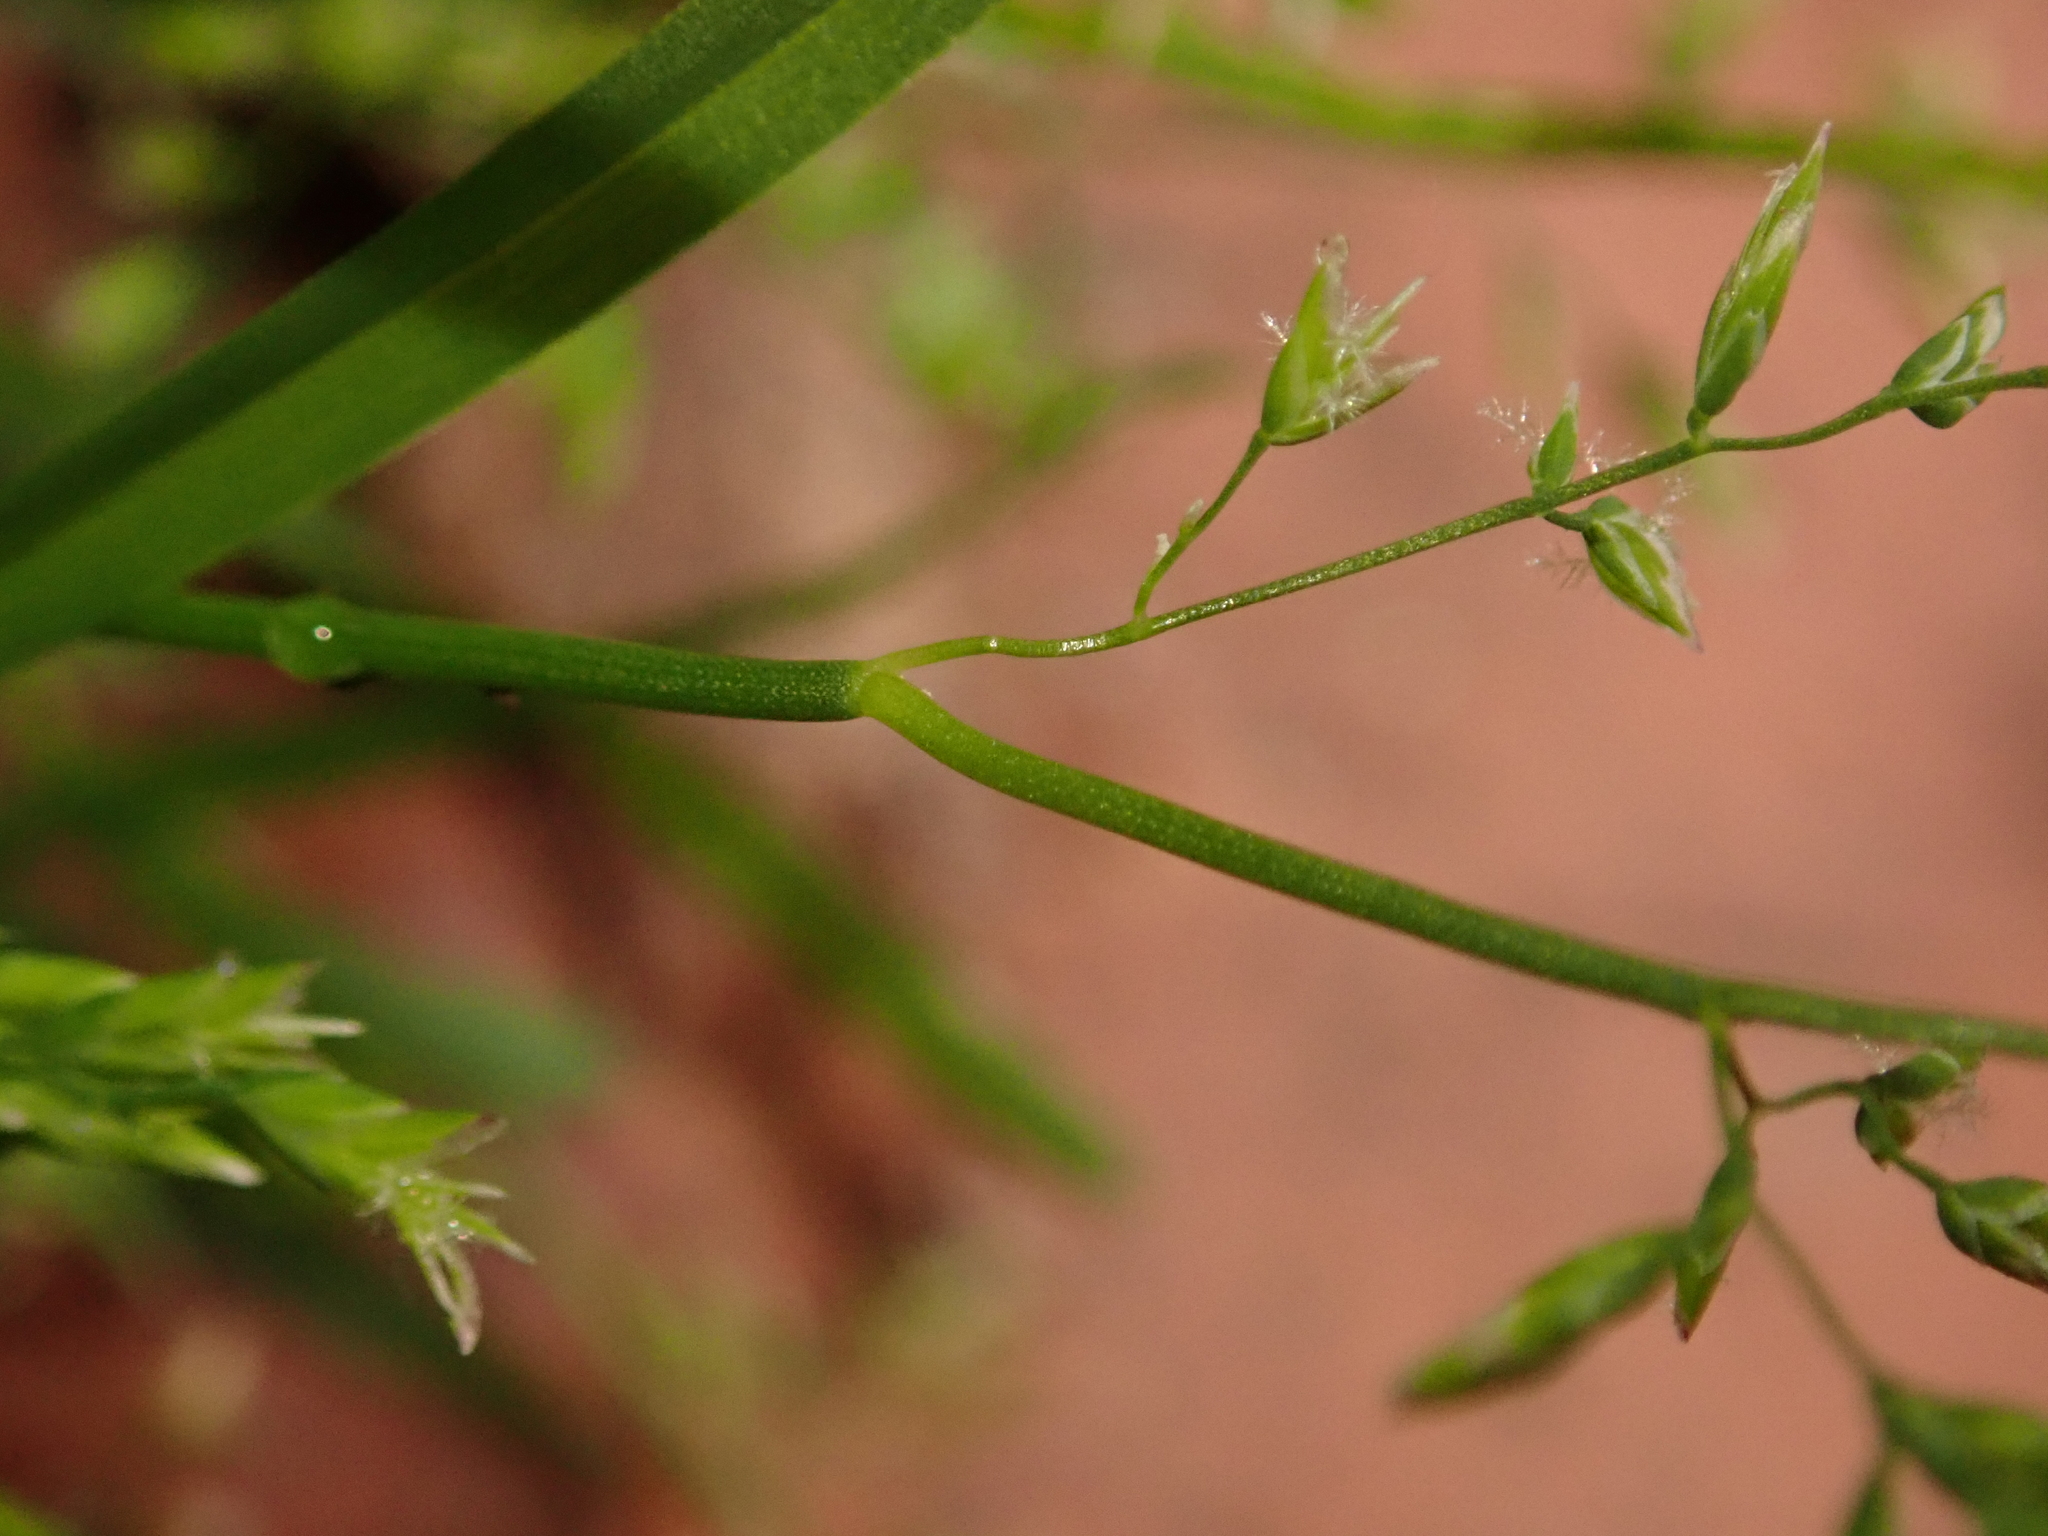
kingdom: Plantae
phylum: Tracheophyta
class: Liliopsida
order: Poales
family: Poaceae
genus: Poa
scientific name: Poa annua
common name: Annual bluegrass
